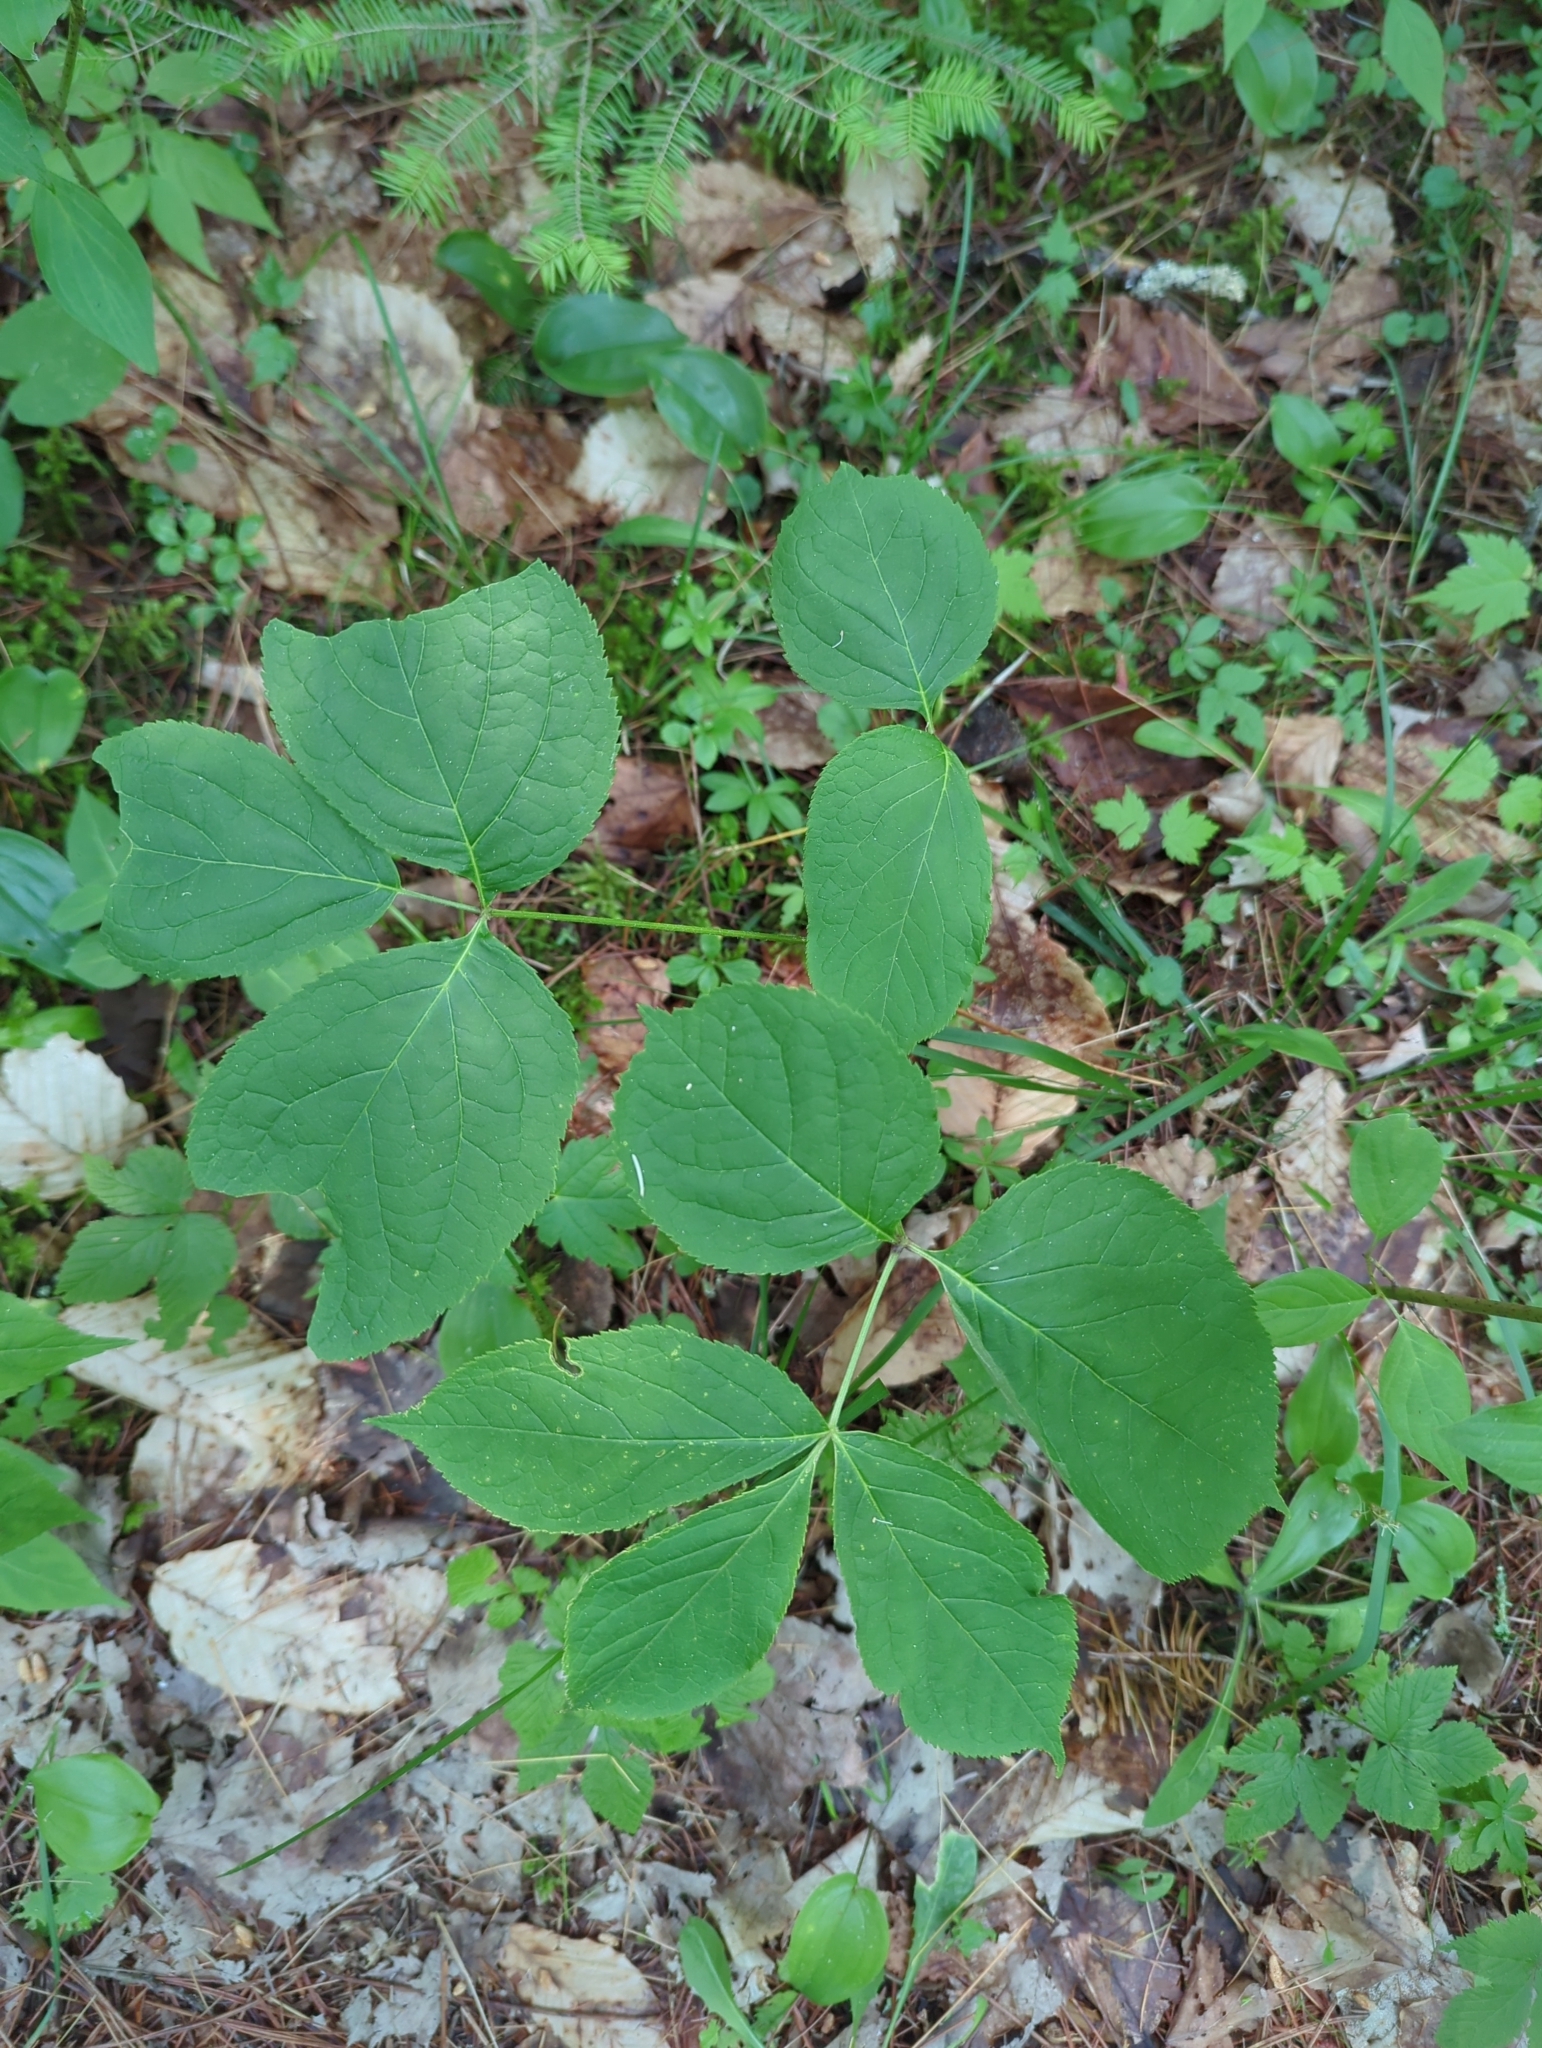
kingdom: Plantae
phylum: Tracheophyta
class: Magnoliopsida
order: Apiales
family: Araliaceae
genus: Aralia
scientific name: Aralia nudicaulis
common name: Wild sarsaparilla
